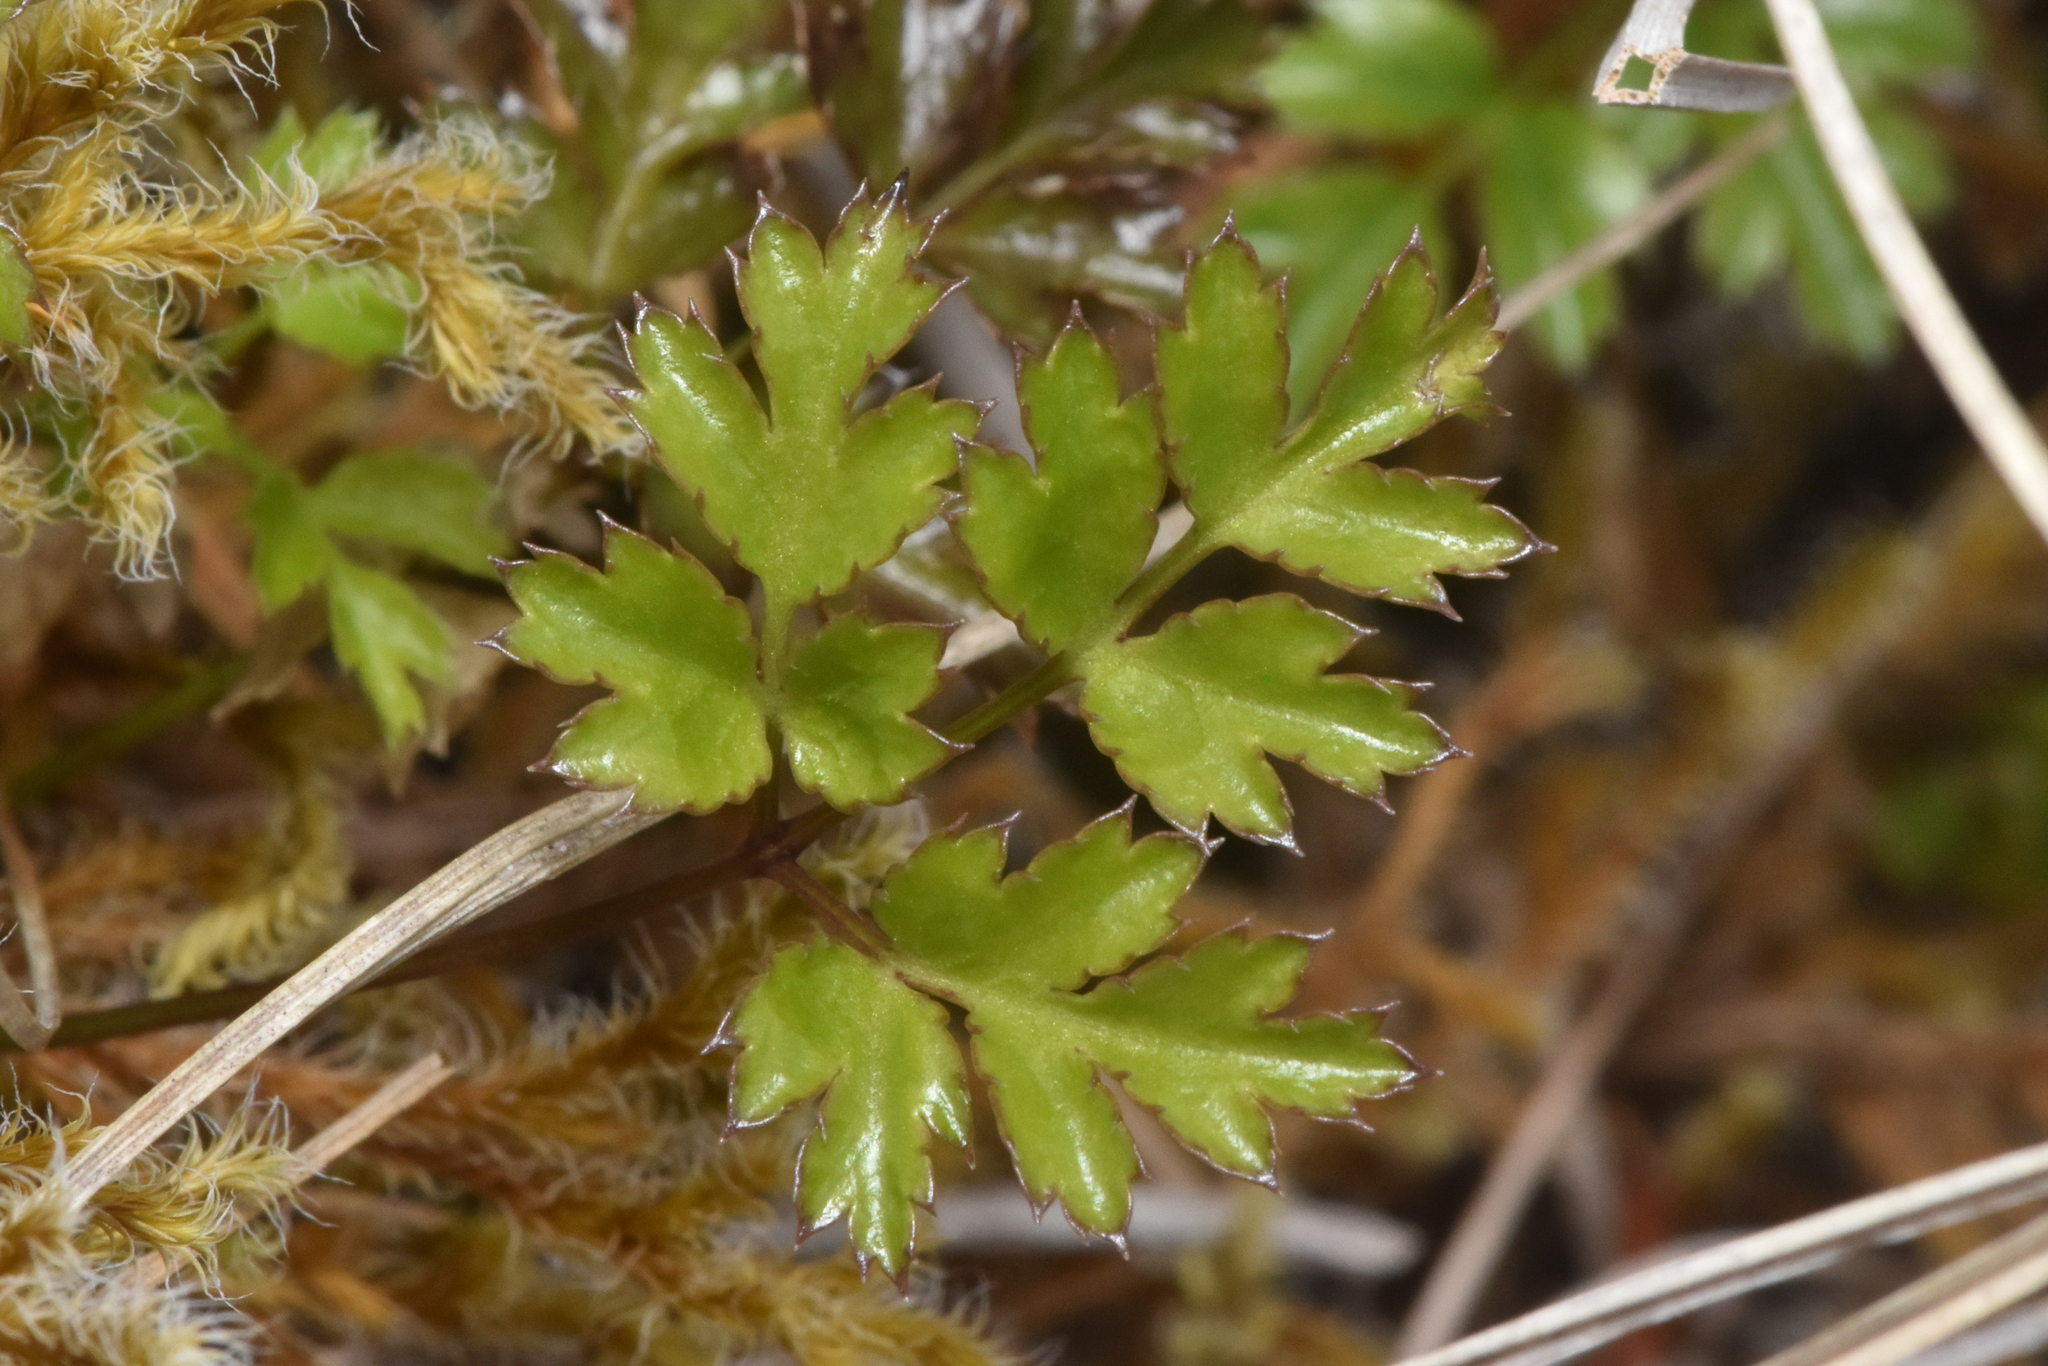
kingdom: Plantae
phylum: Tracheophyta
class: Magnoliopsida
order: Ranunculales
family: Ranunculaceae
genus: Coptis
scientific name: Coptis aspleniifolia
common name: Fern-leaved goldthread
